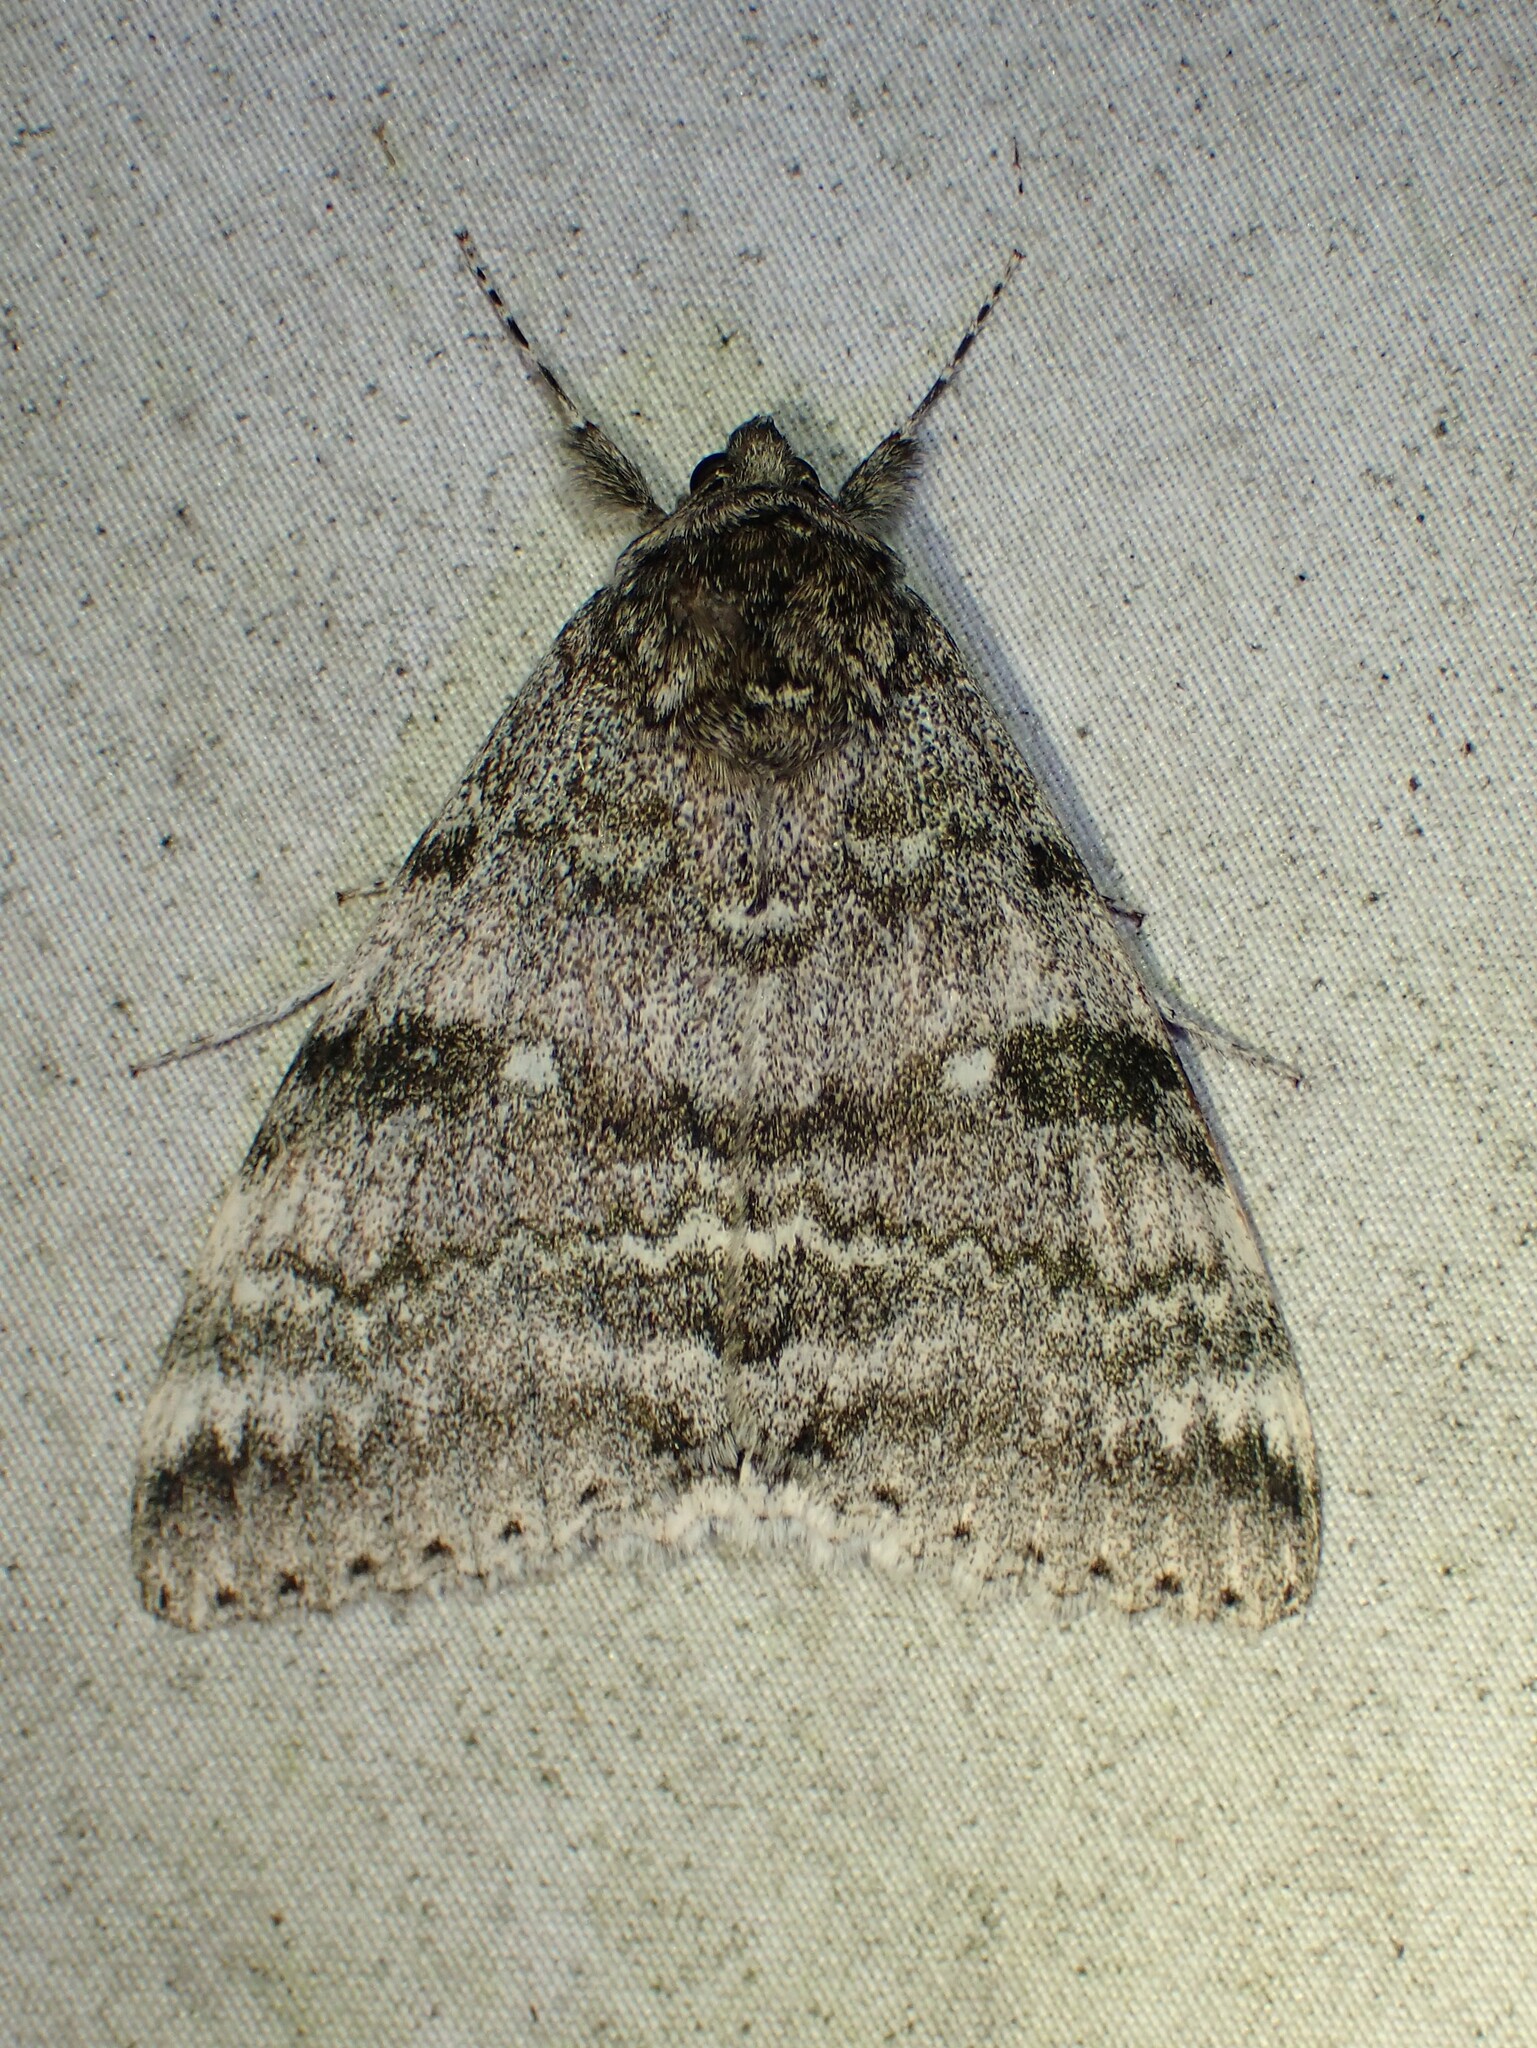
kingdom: Animalia
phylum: Arthropoda
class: Insecta
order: Lepidoptera
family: Erebidae
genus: Catocala
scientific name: Catocala relicta
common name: White underwing
